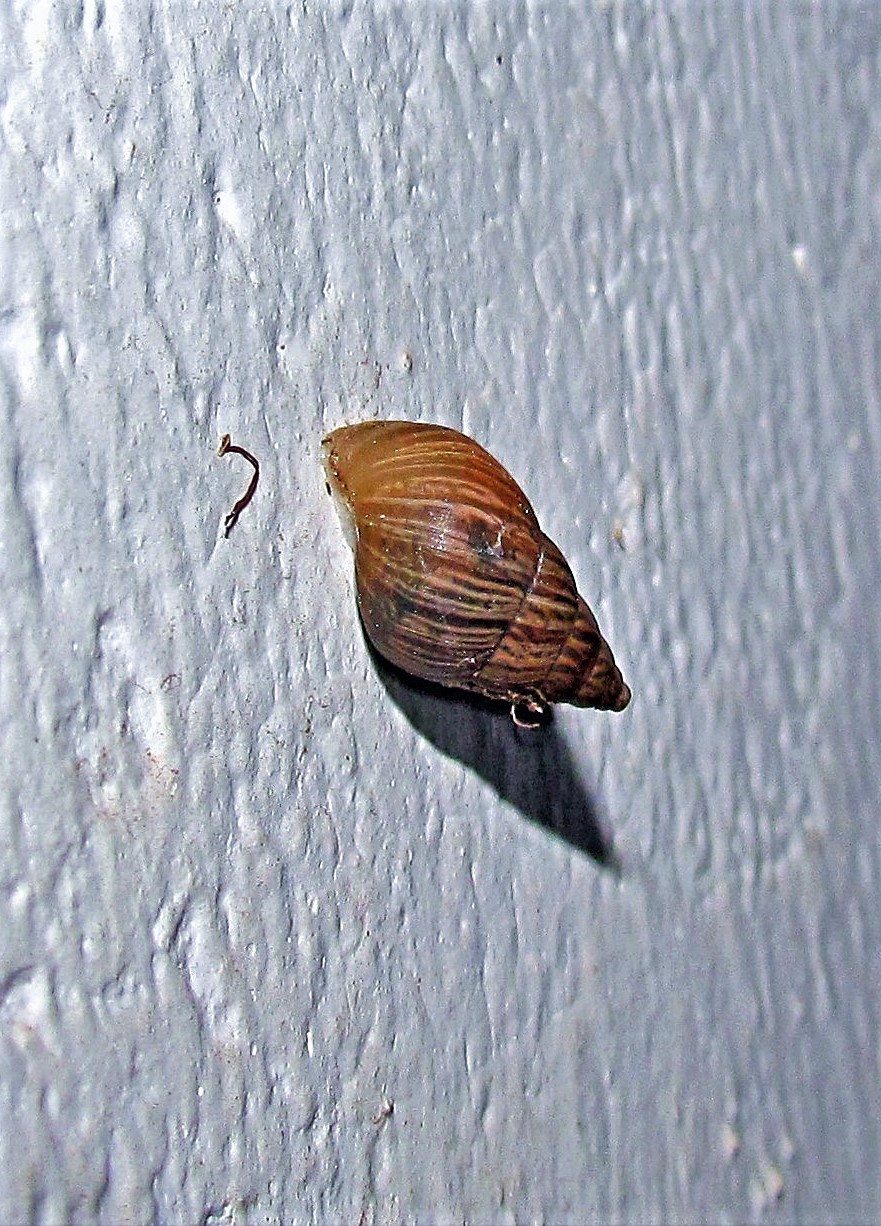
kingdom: Animalia
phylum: Mollusca
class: Gastropoda
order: Stylommatophora
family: Bulimulidae
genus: Bulimulus
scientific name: Bulimulus bonariensis
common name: Snail
